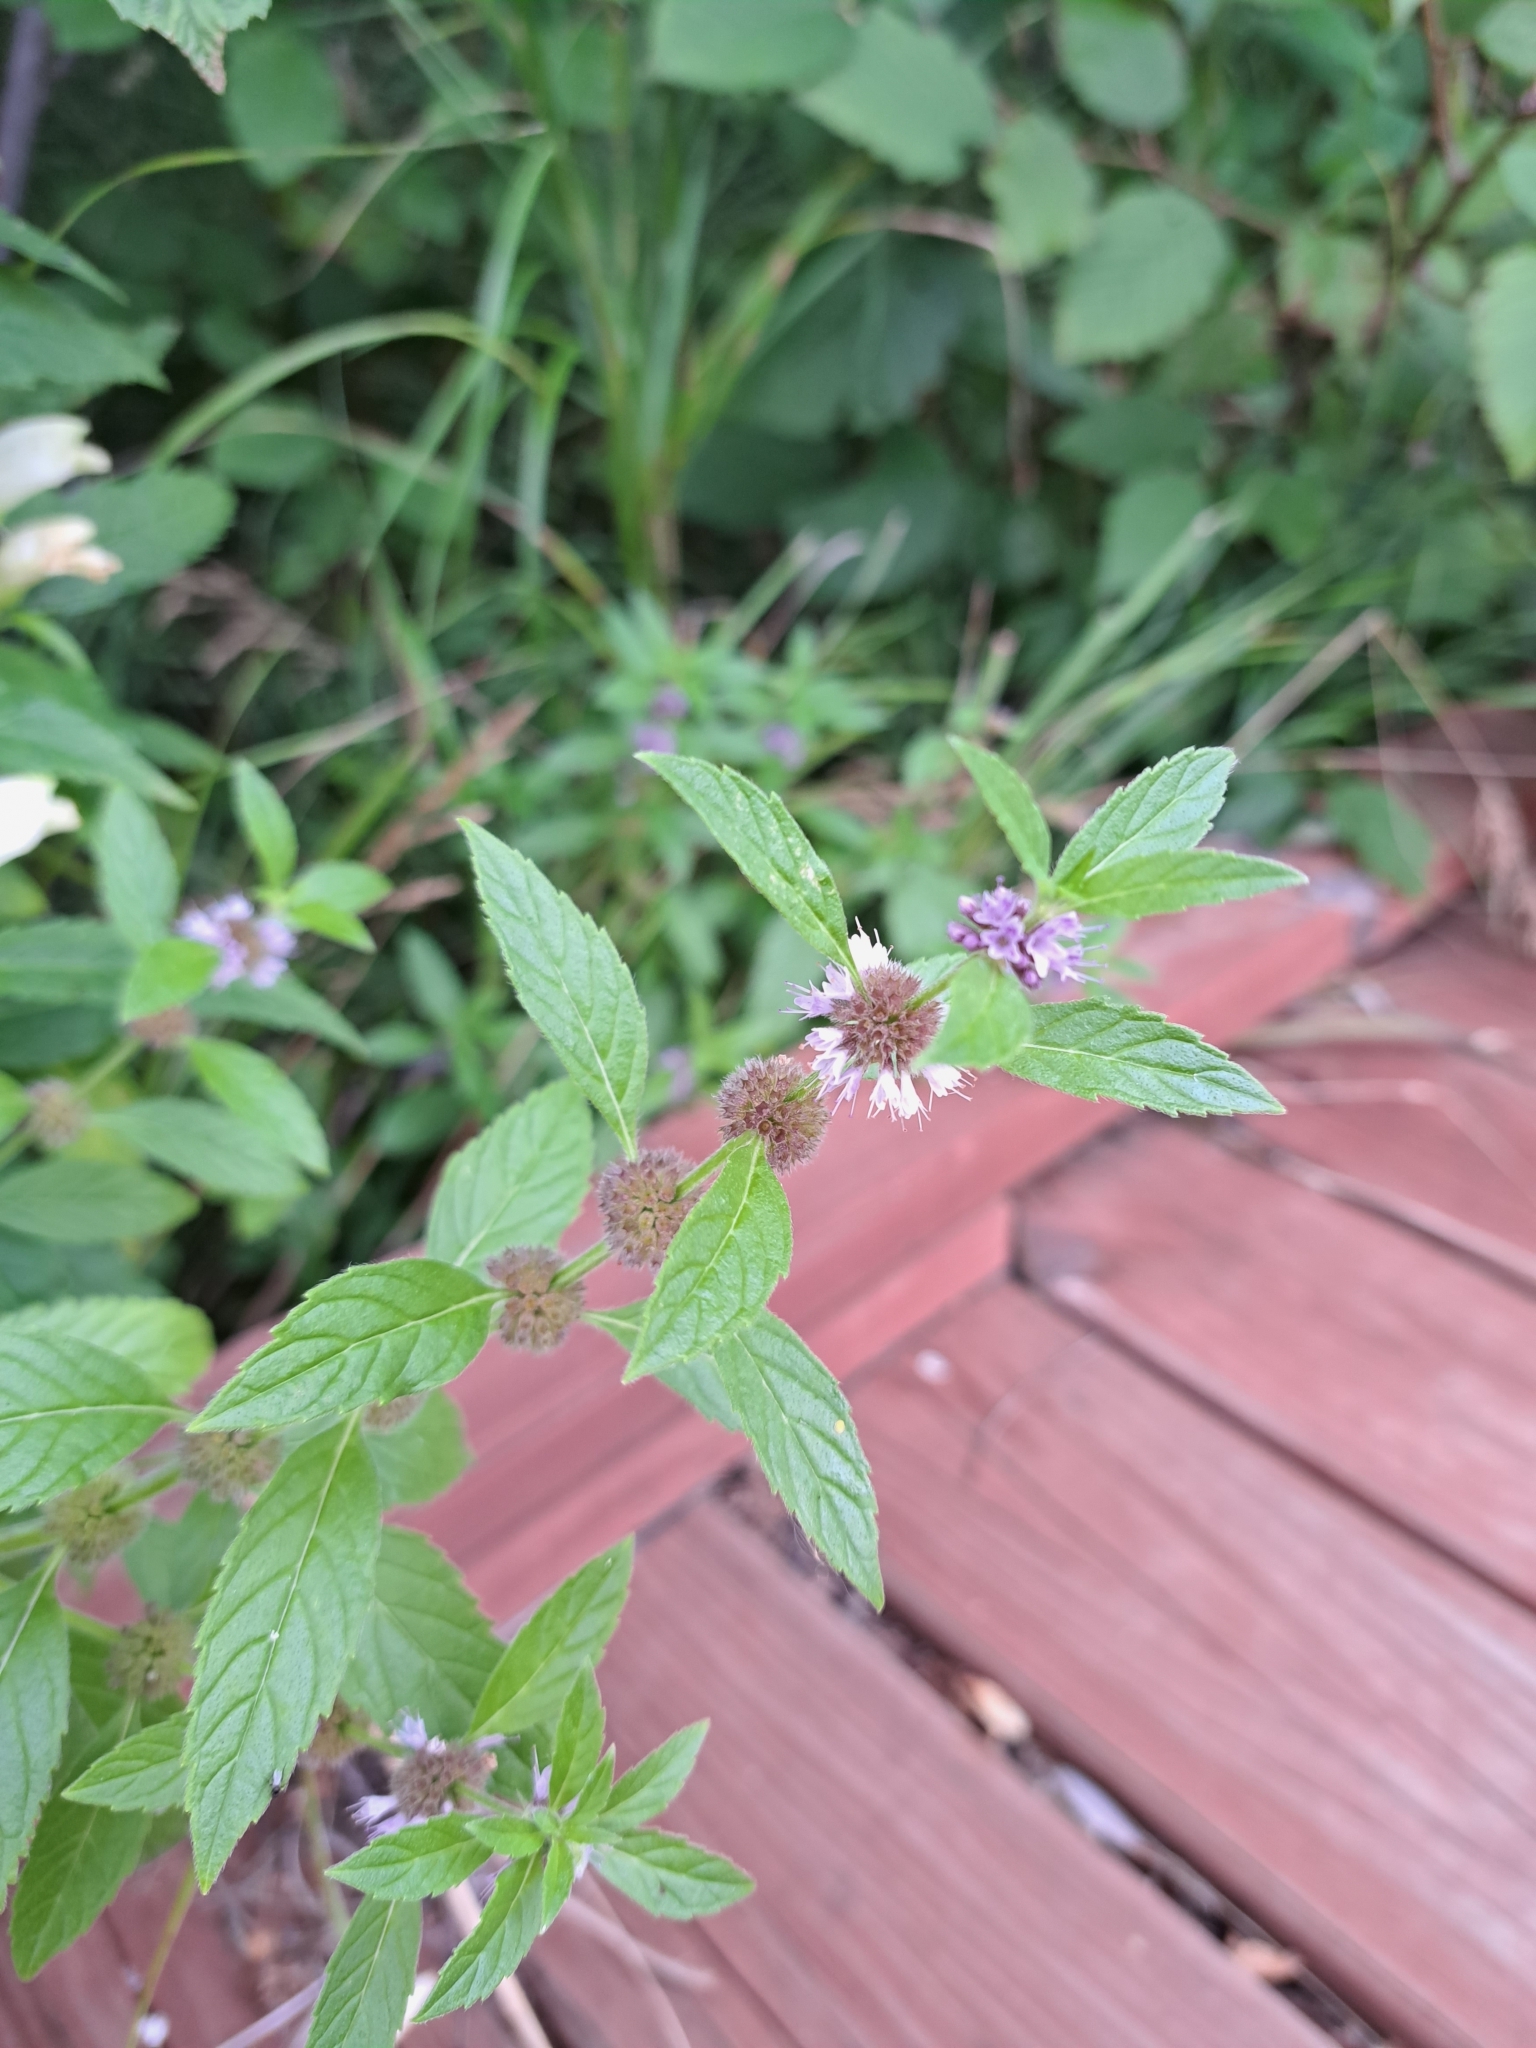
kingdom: Plantae
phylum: Tracheophyta
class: Magnoliopsida
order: Lamiales
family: Lamiaceae
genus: Mentha
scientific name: Mentha canadensis
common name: American corn mint
